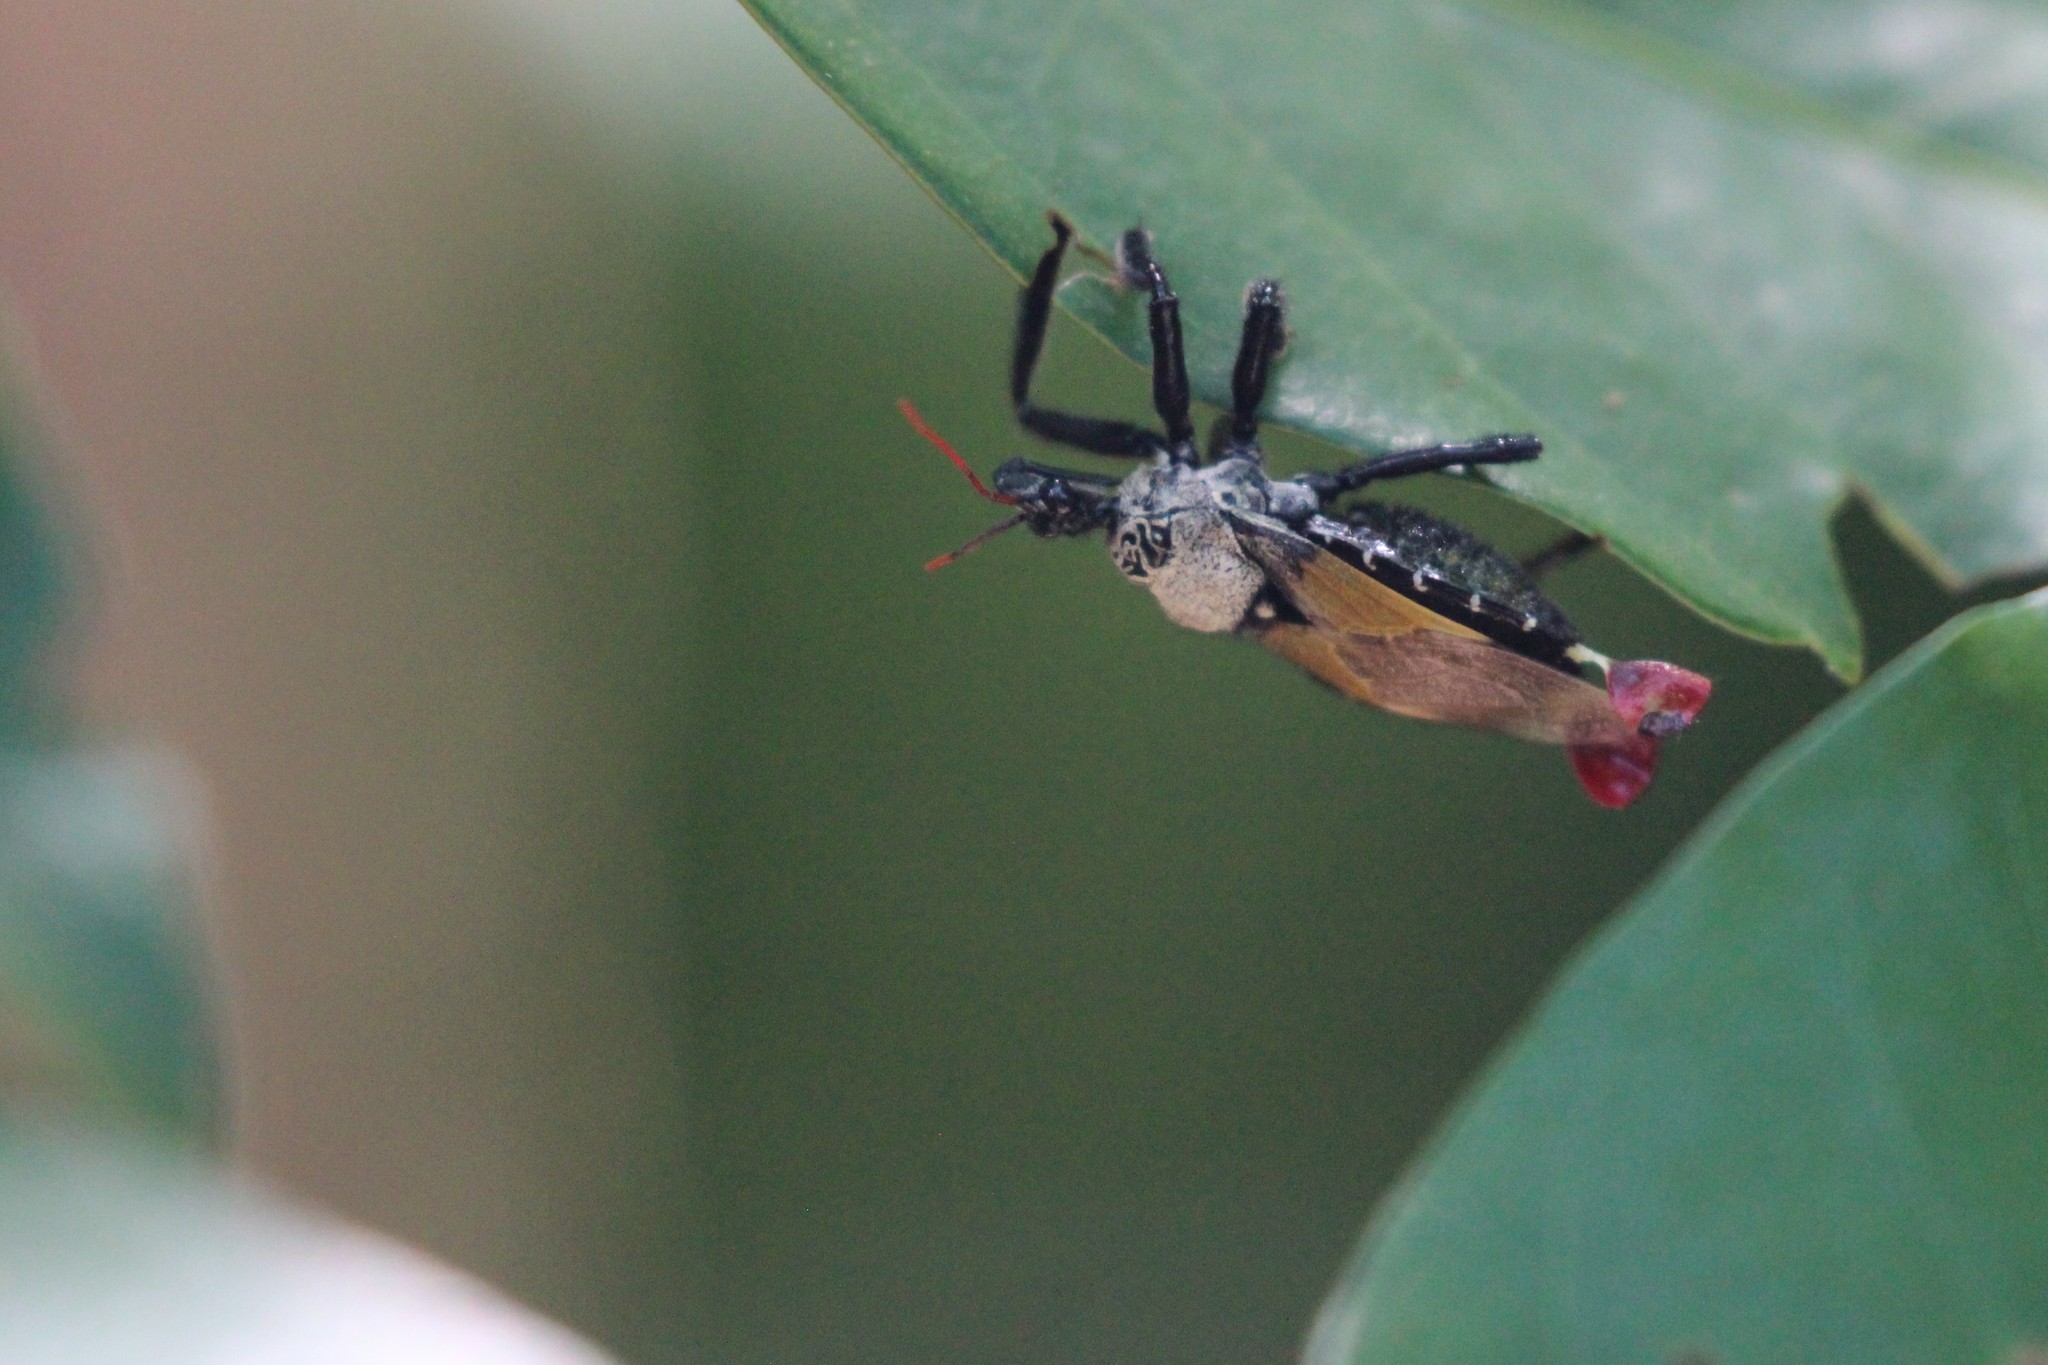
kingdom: Animalia
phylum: Arthropoda
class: Insecta
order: Hemiptera
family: Reduviidae
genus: Apiomerus
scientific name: Apiomerus vexillarius
